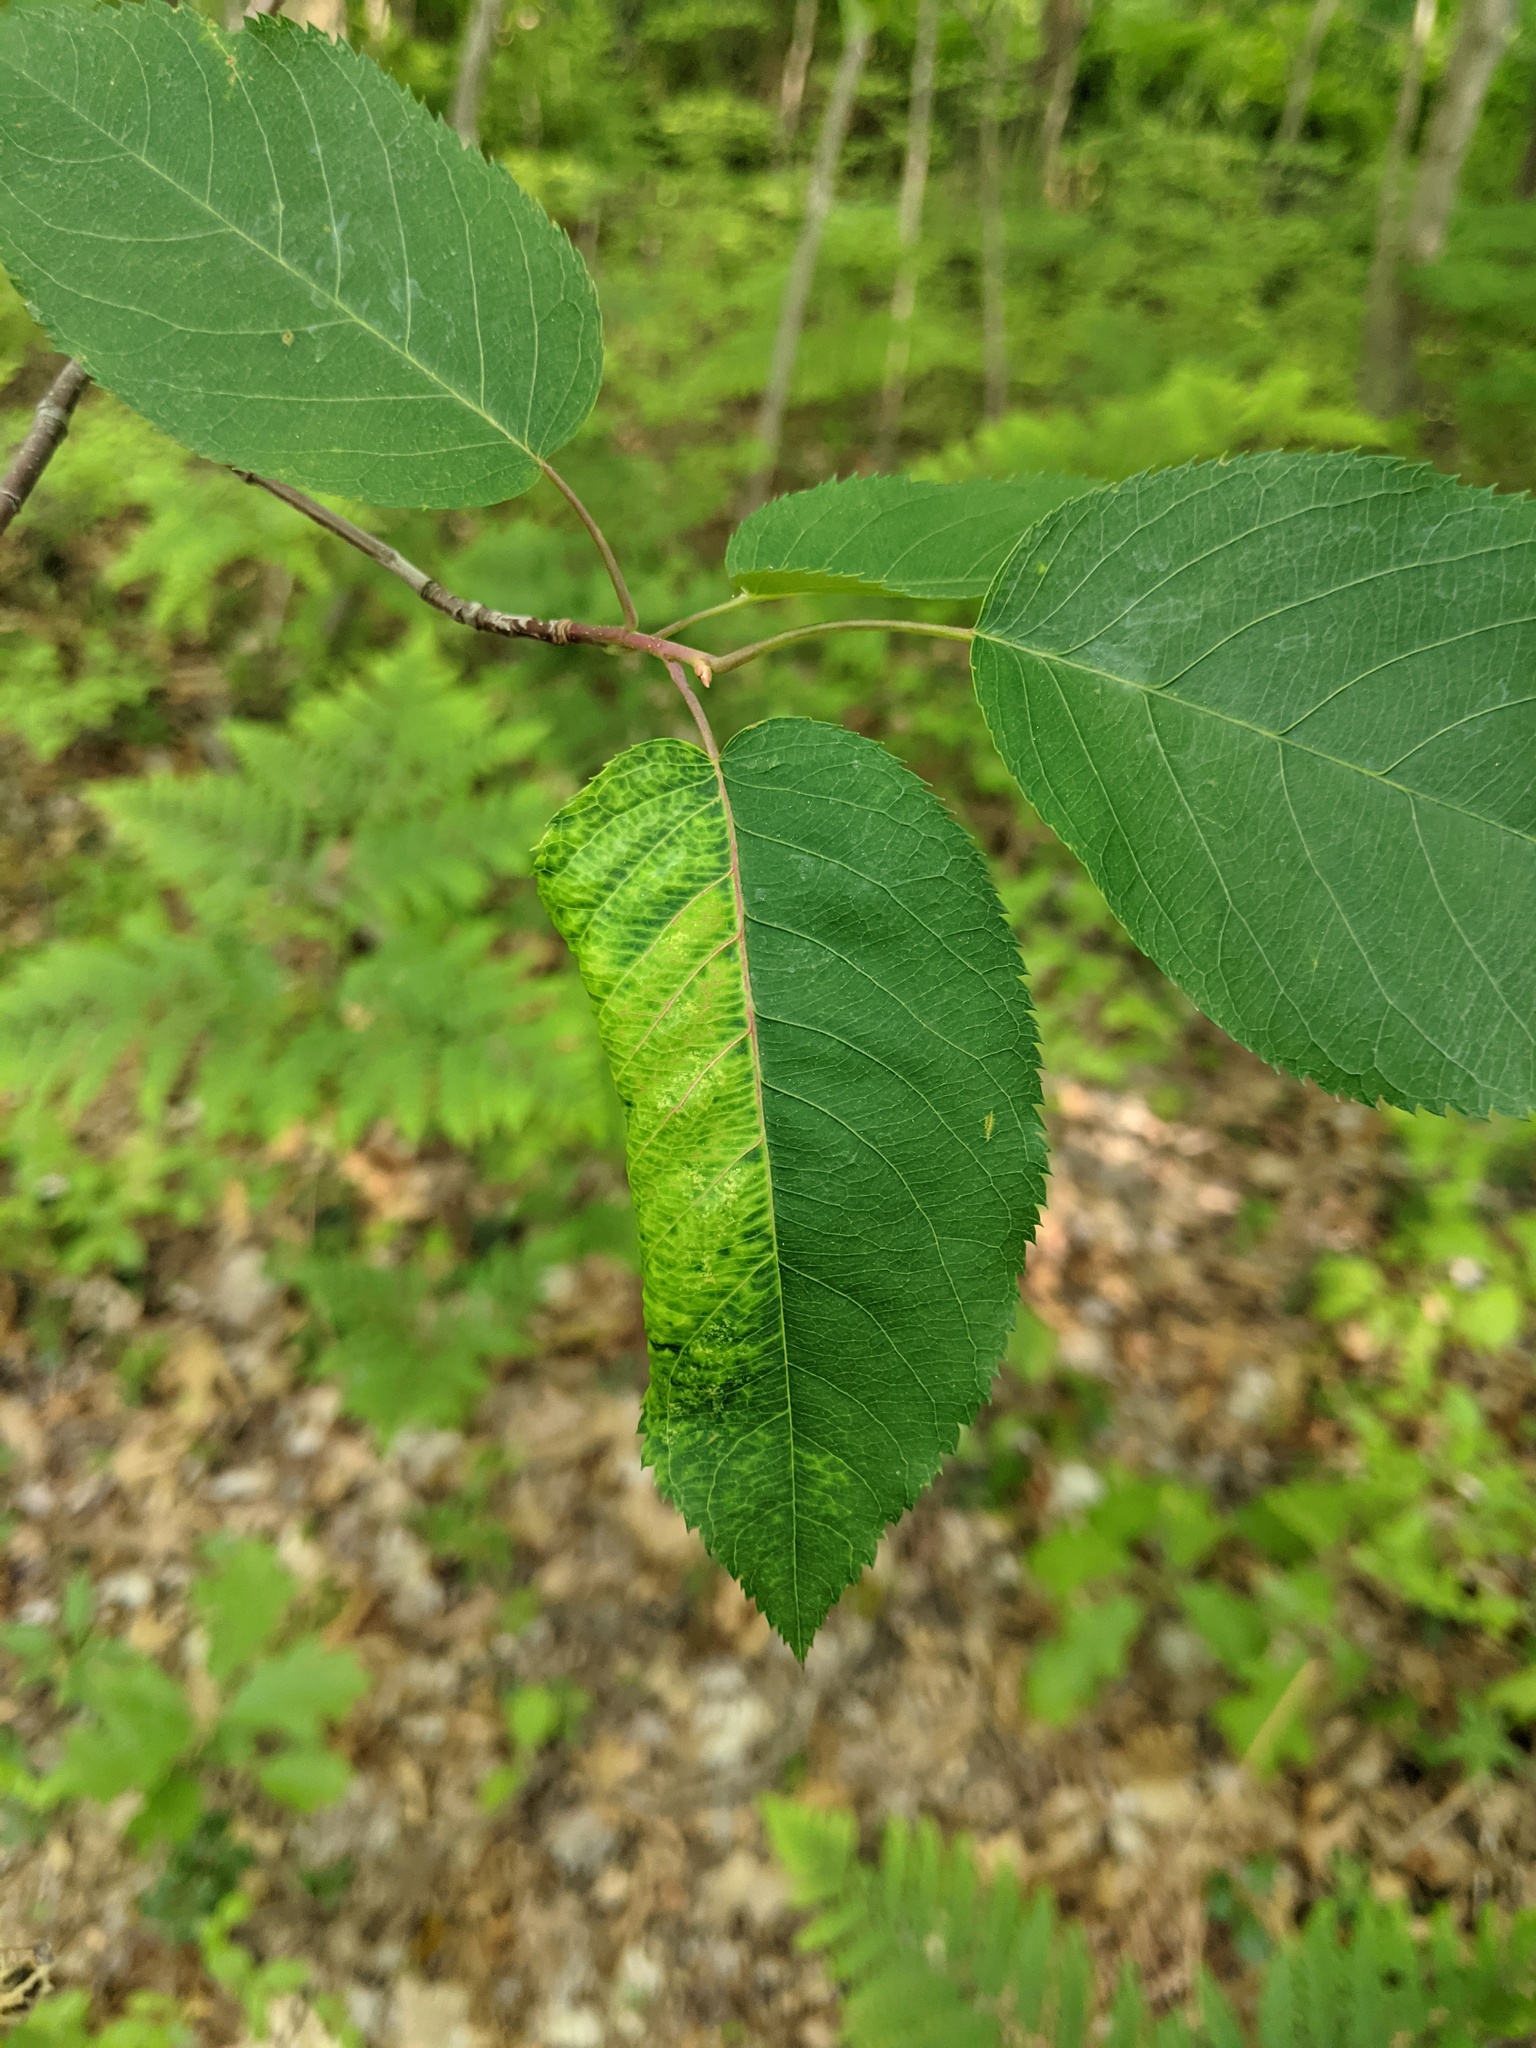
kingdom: Animalia
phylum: Arthropoda
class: Insecta
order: Hemiptera
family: Aphididae
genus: Eriosoma
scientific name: Eriosoma americanum
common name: Woolly elm aphid
